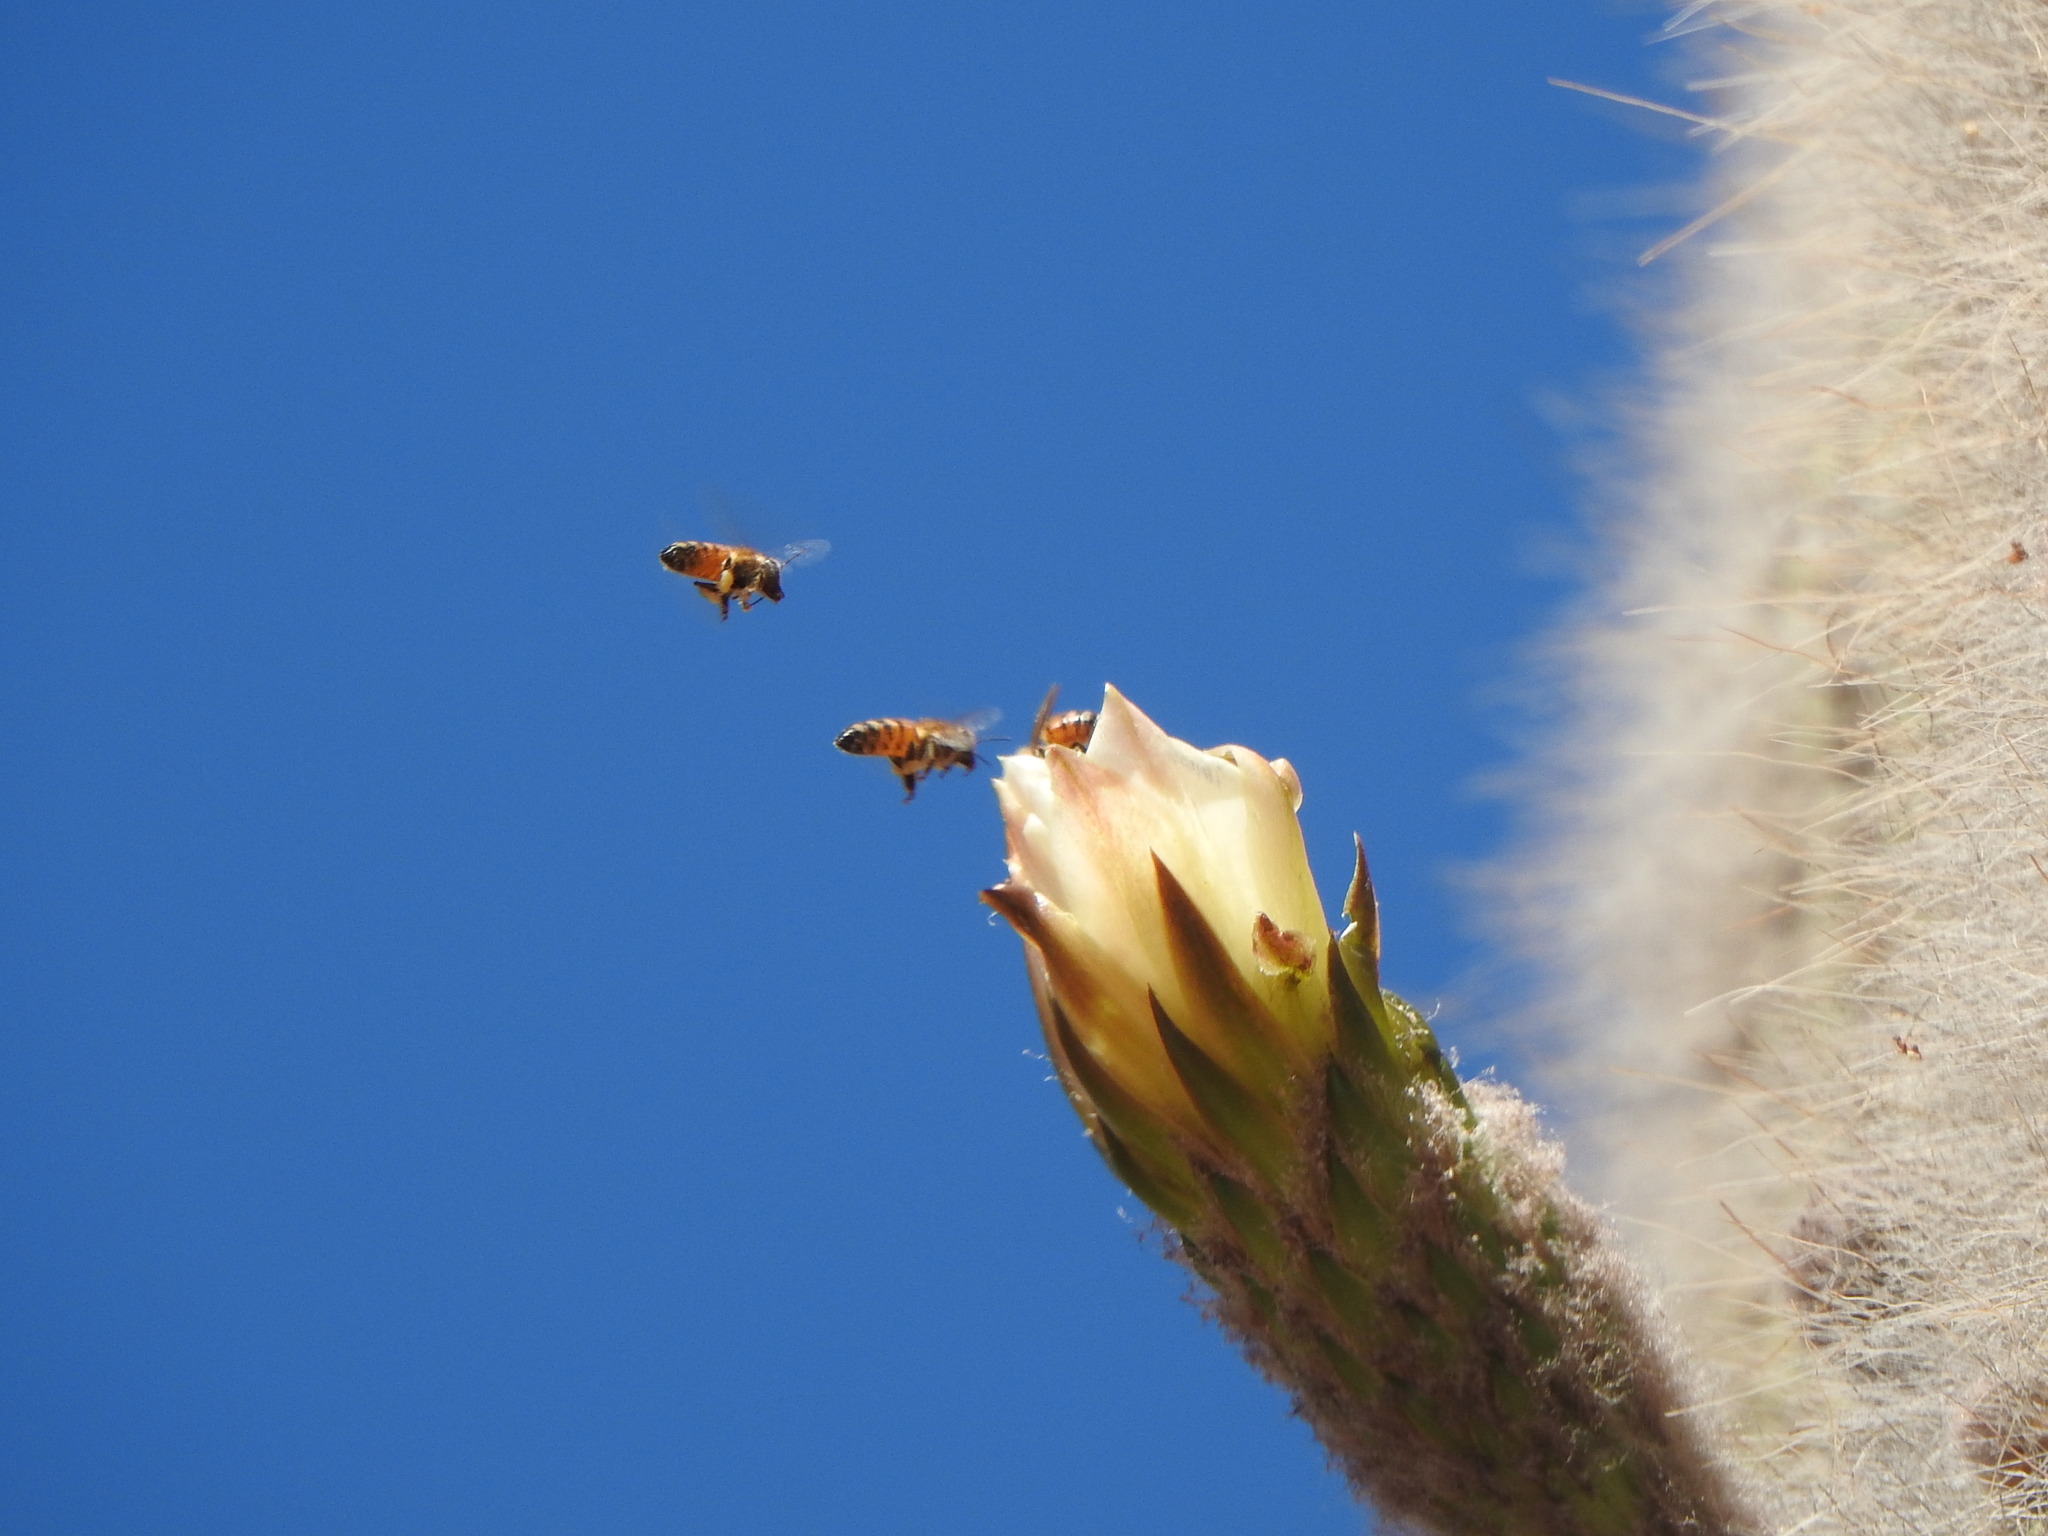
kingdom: Animalia
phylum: Arthropoda
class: Insecta
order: Hymenoptera
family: Apidae
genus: Apis
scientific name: Apis mellifera
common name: Honey bee
